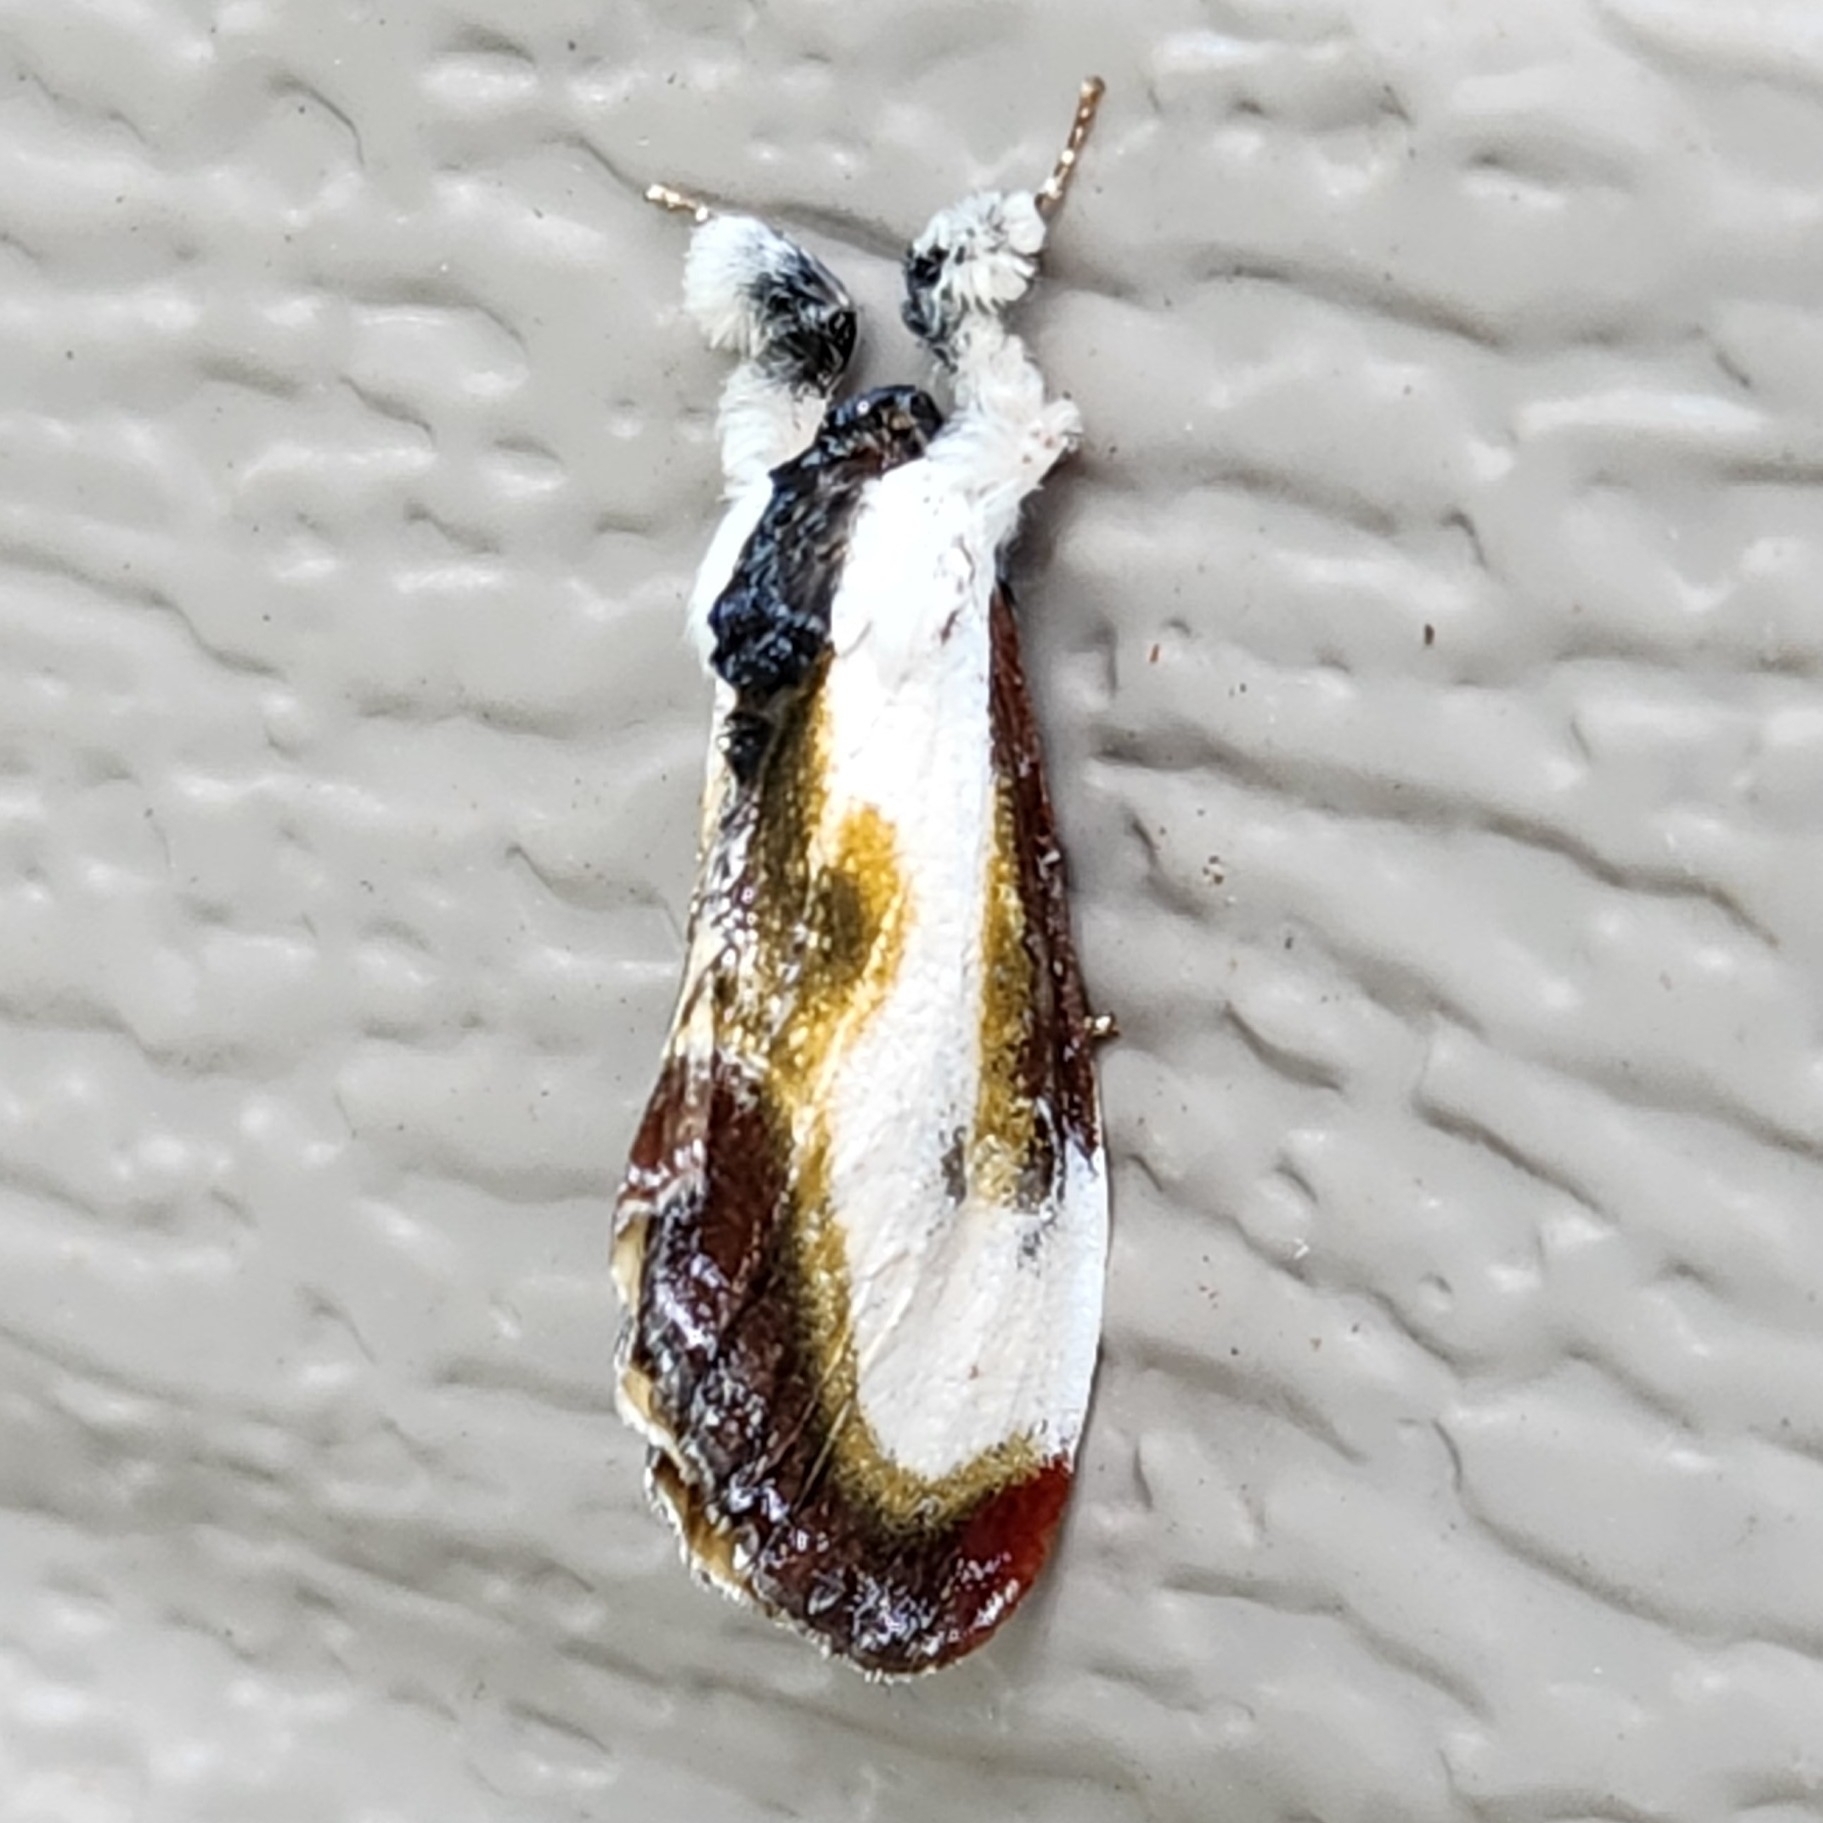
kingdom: Animalia
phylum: Arthropoda
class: Insecta
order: Lepidoptera
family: Noctuidae
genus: Eudryas
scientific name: Eudryas grata
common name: Beautiful wood-nymph
